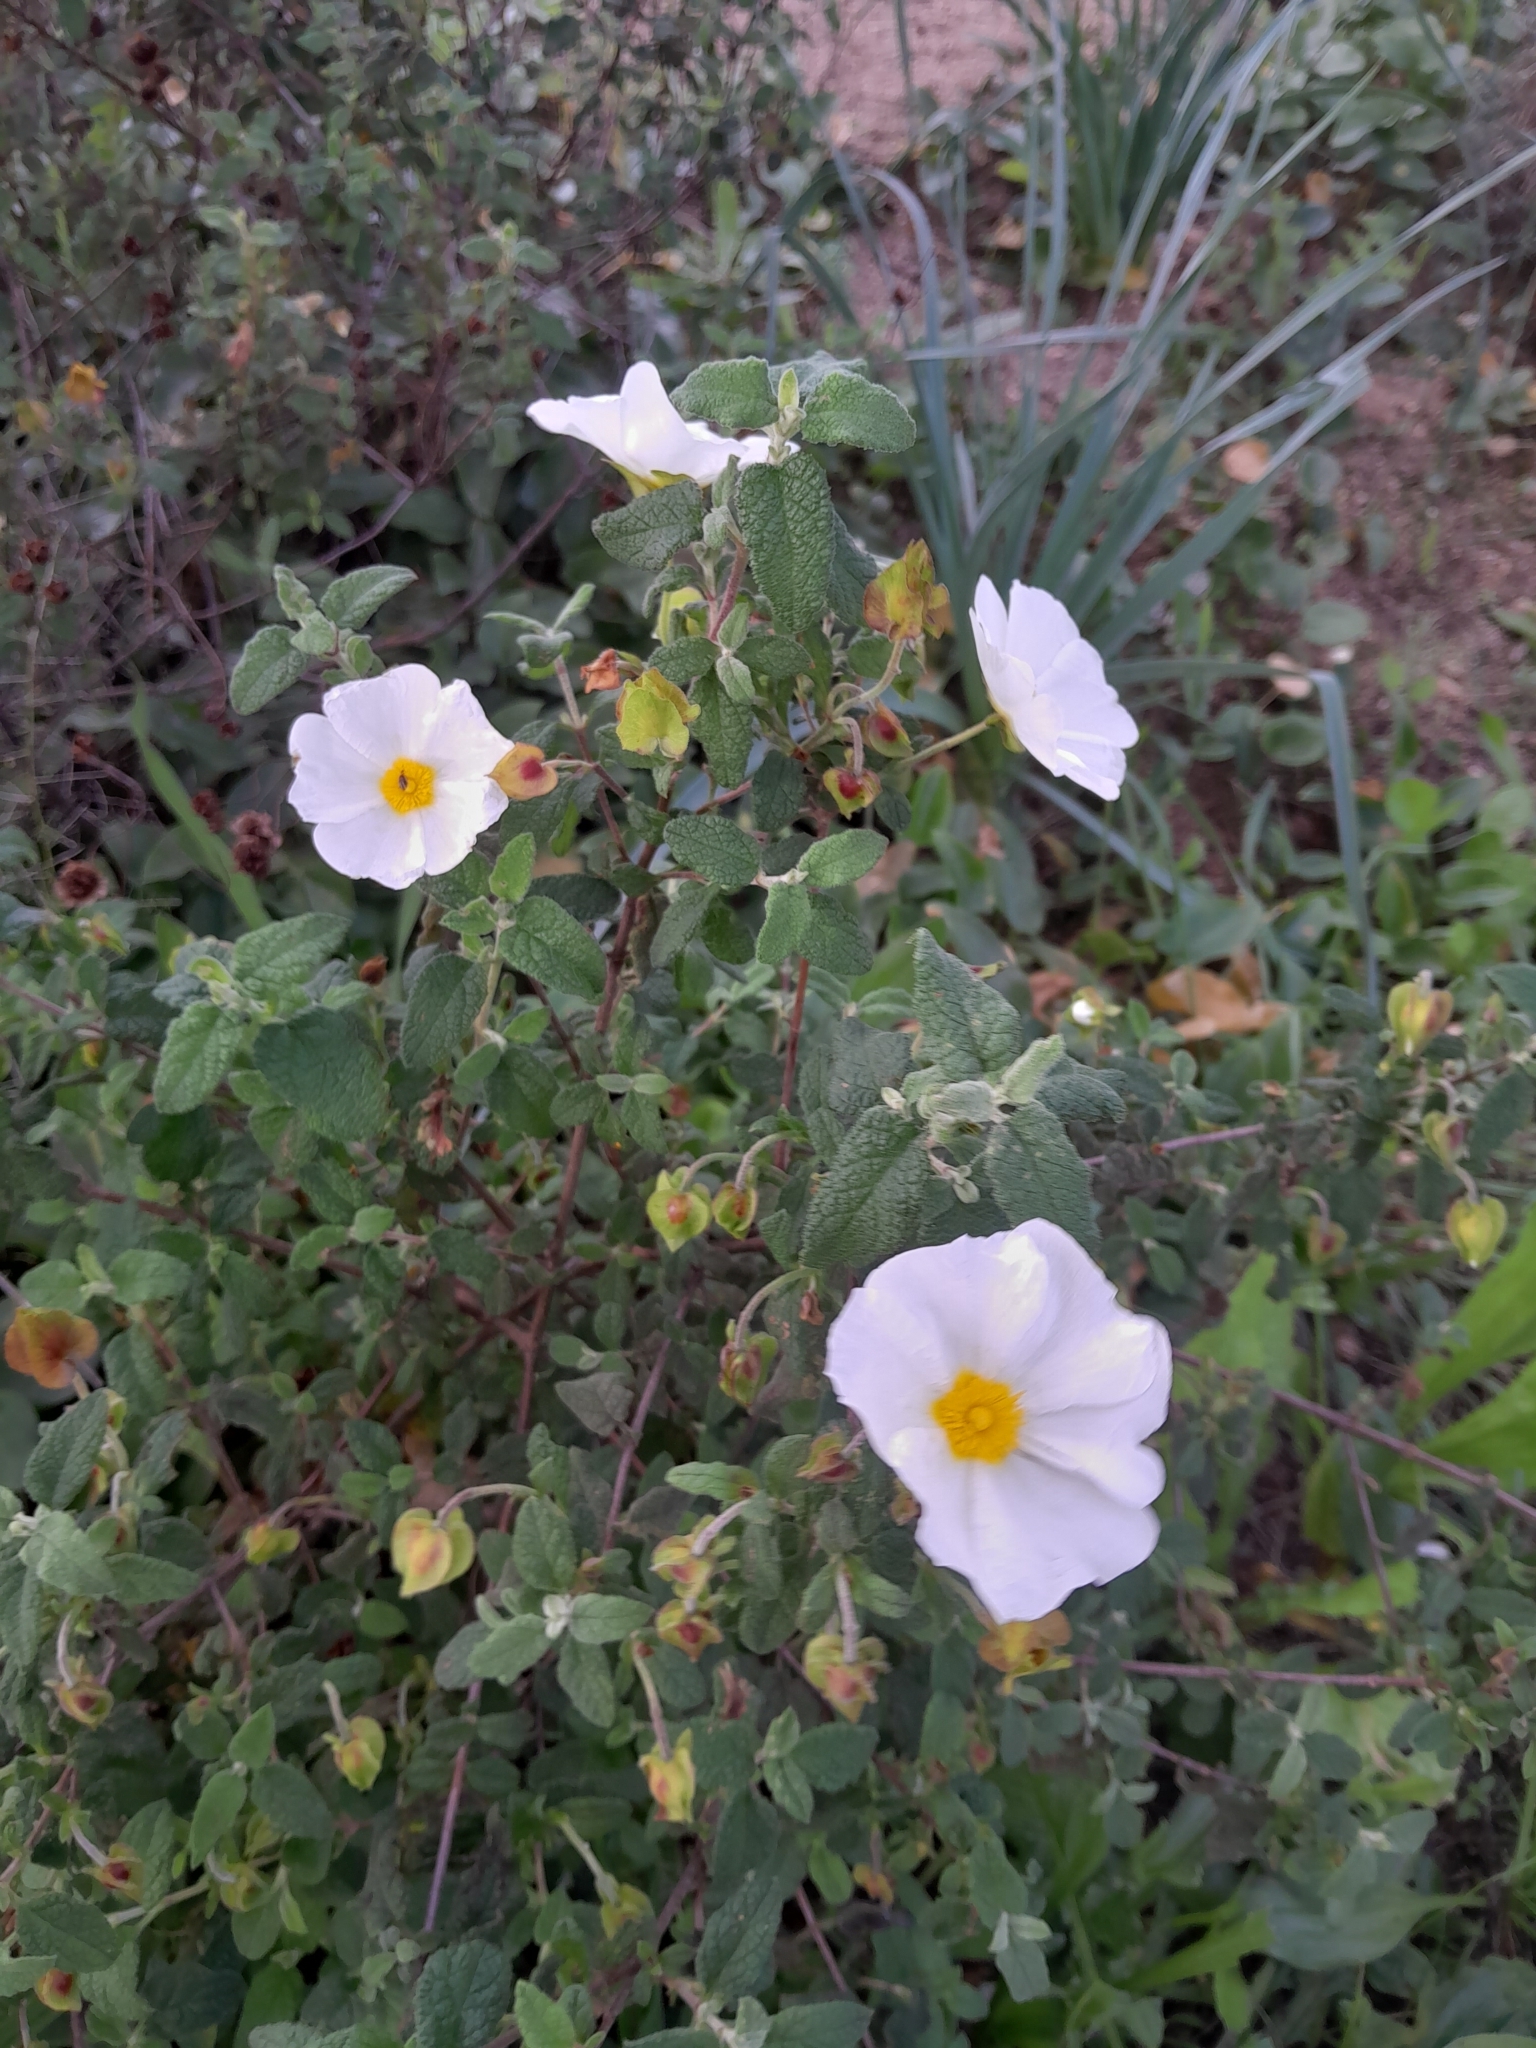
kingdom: Plantae
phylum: Tracheophyta
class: Magnoliopsida
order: Malvales
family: Cistaceae
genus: Cistus
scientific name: Cistus salviifolius
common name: Salvia cistus
